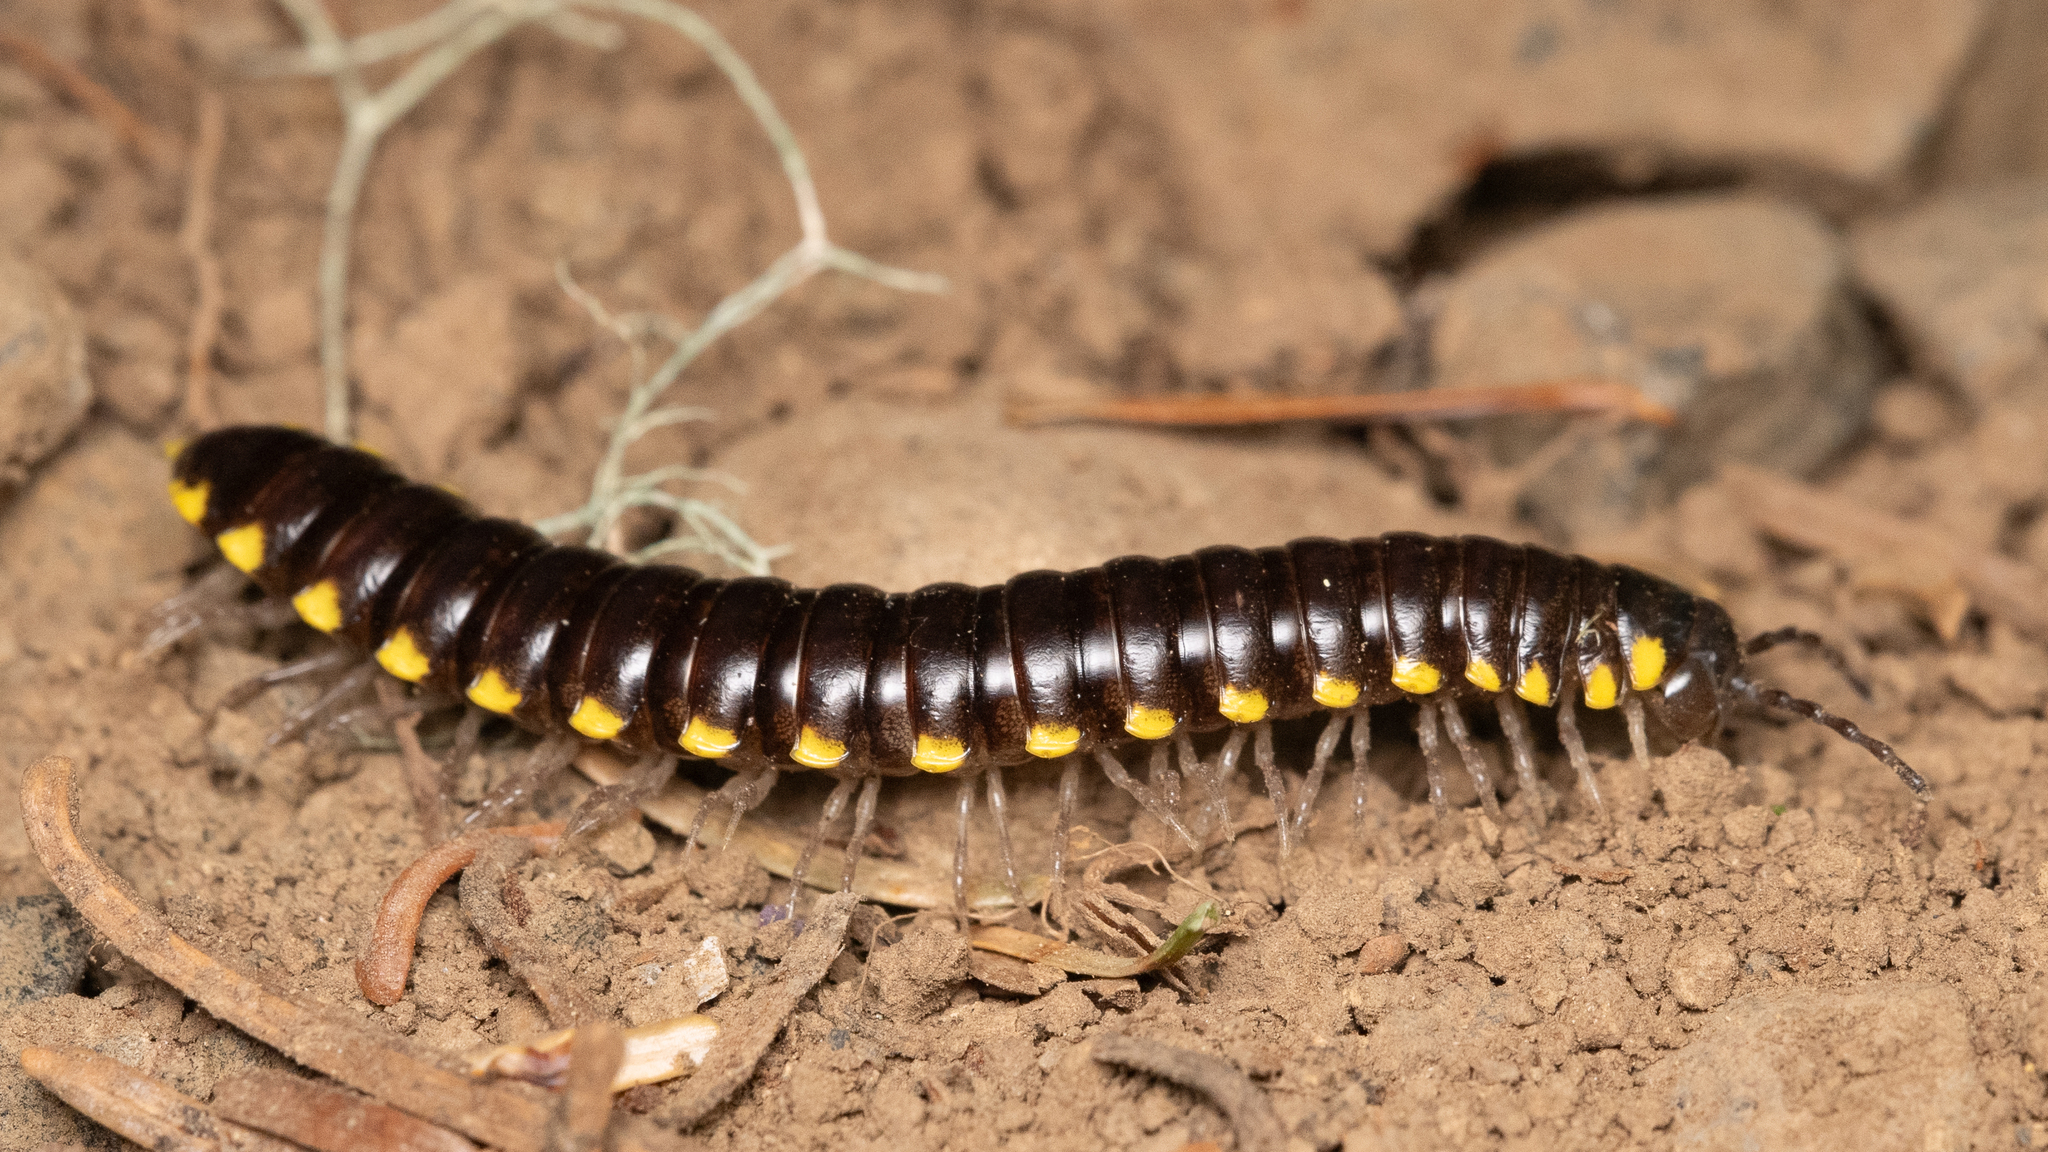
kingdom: Animalia
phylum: Arthropoda
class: Diplopoda
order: Polydesmida
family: Xystodesmidae
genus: Harpaphe
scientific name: Harpaphe haydeniana
